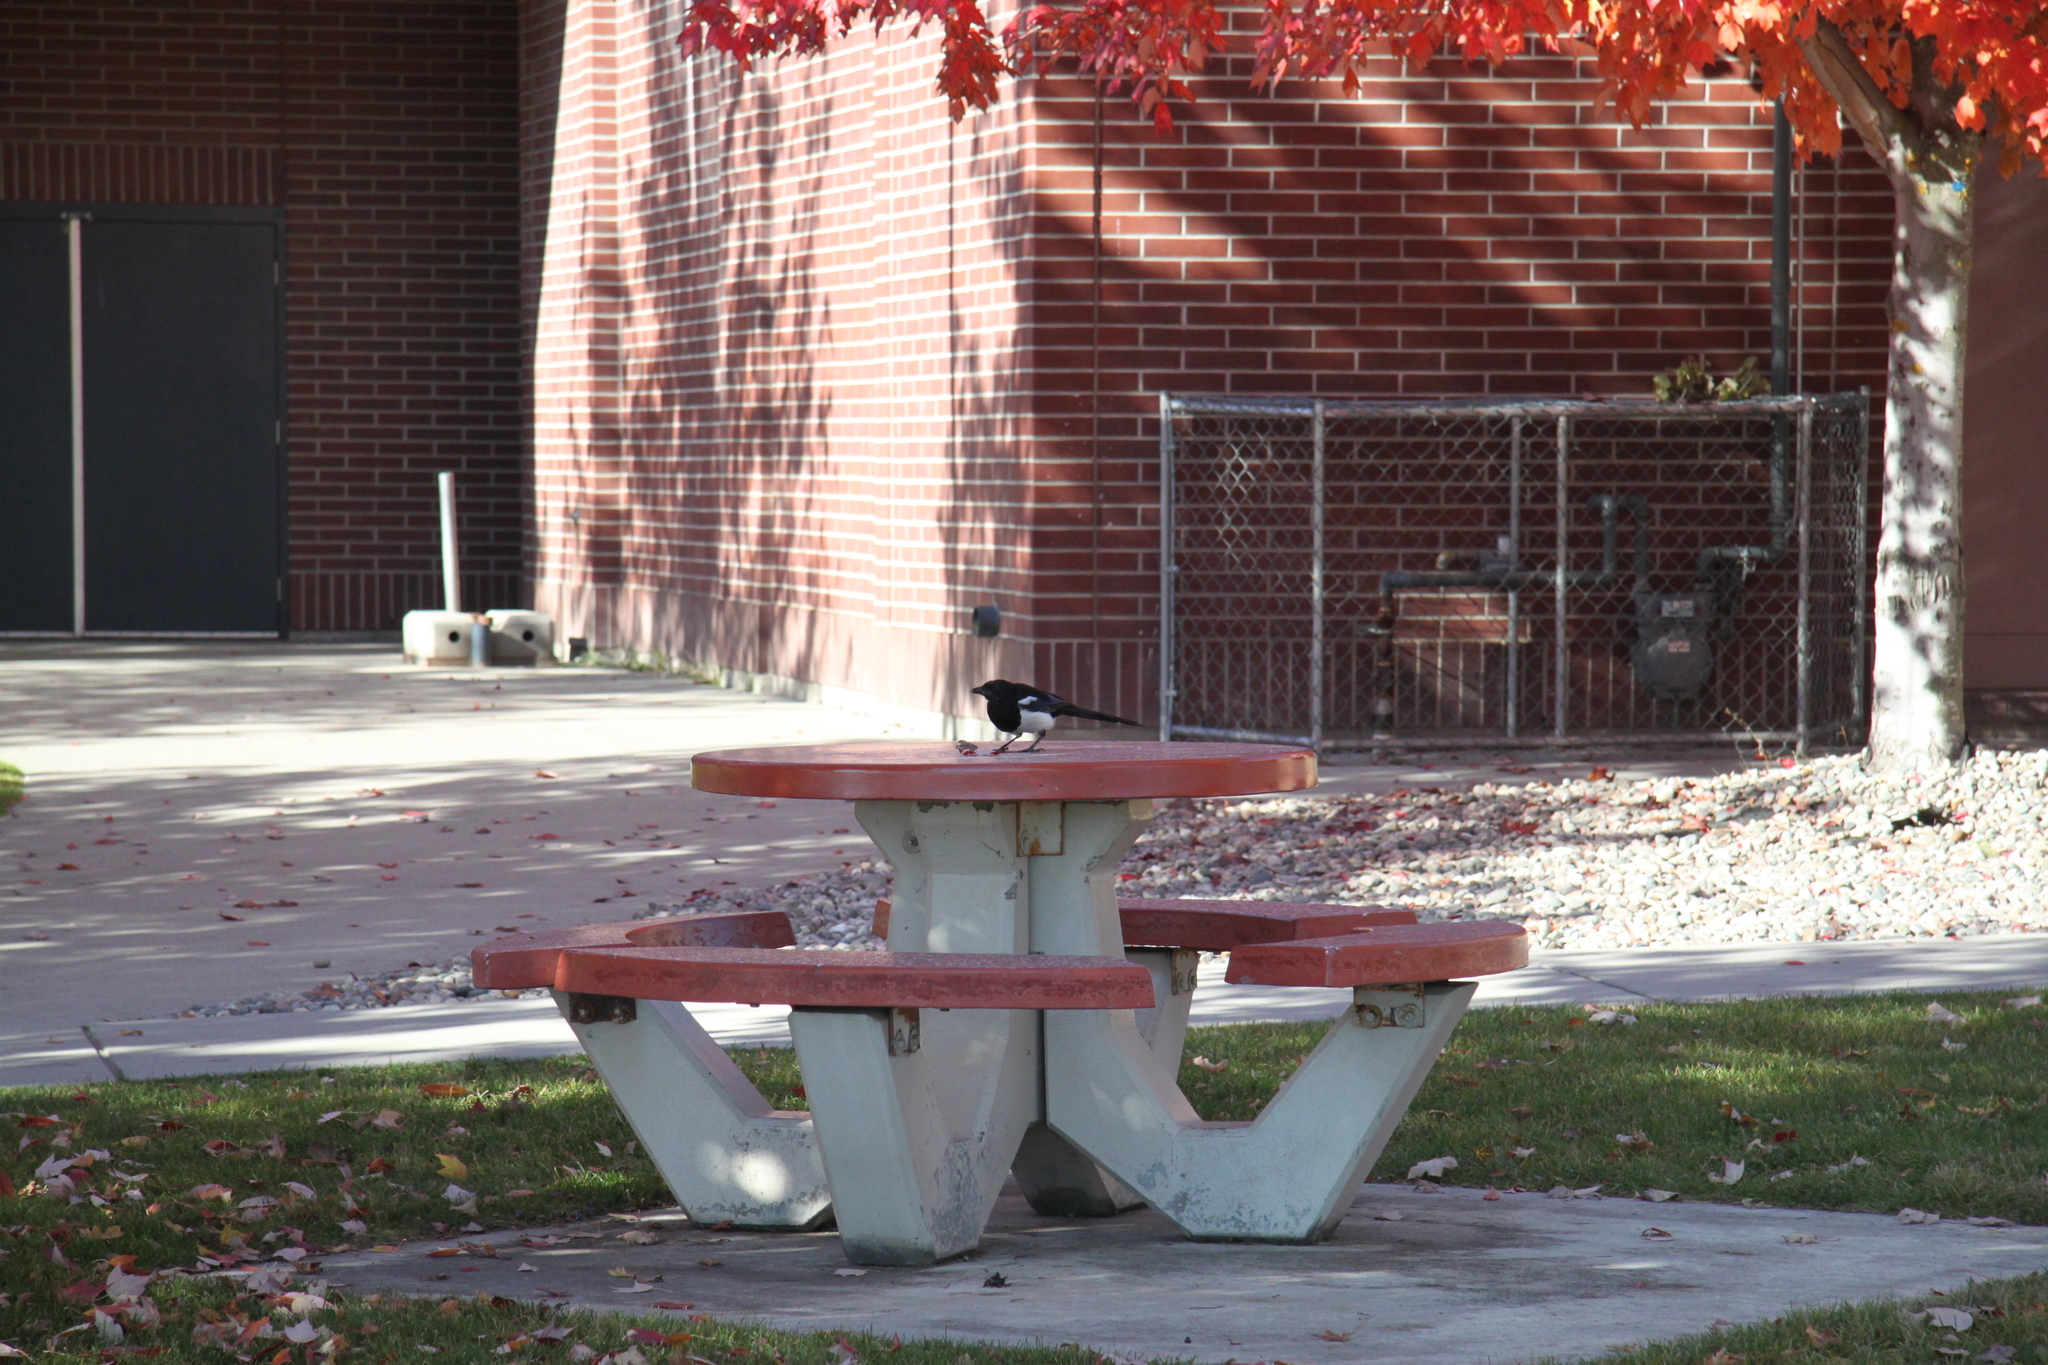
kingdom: Animalia
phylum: Chordata
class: Aves
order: Passeriformes
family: Corvidae
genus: Pica
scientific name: Pica hudsonia
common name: Black-billed magpie
